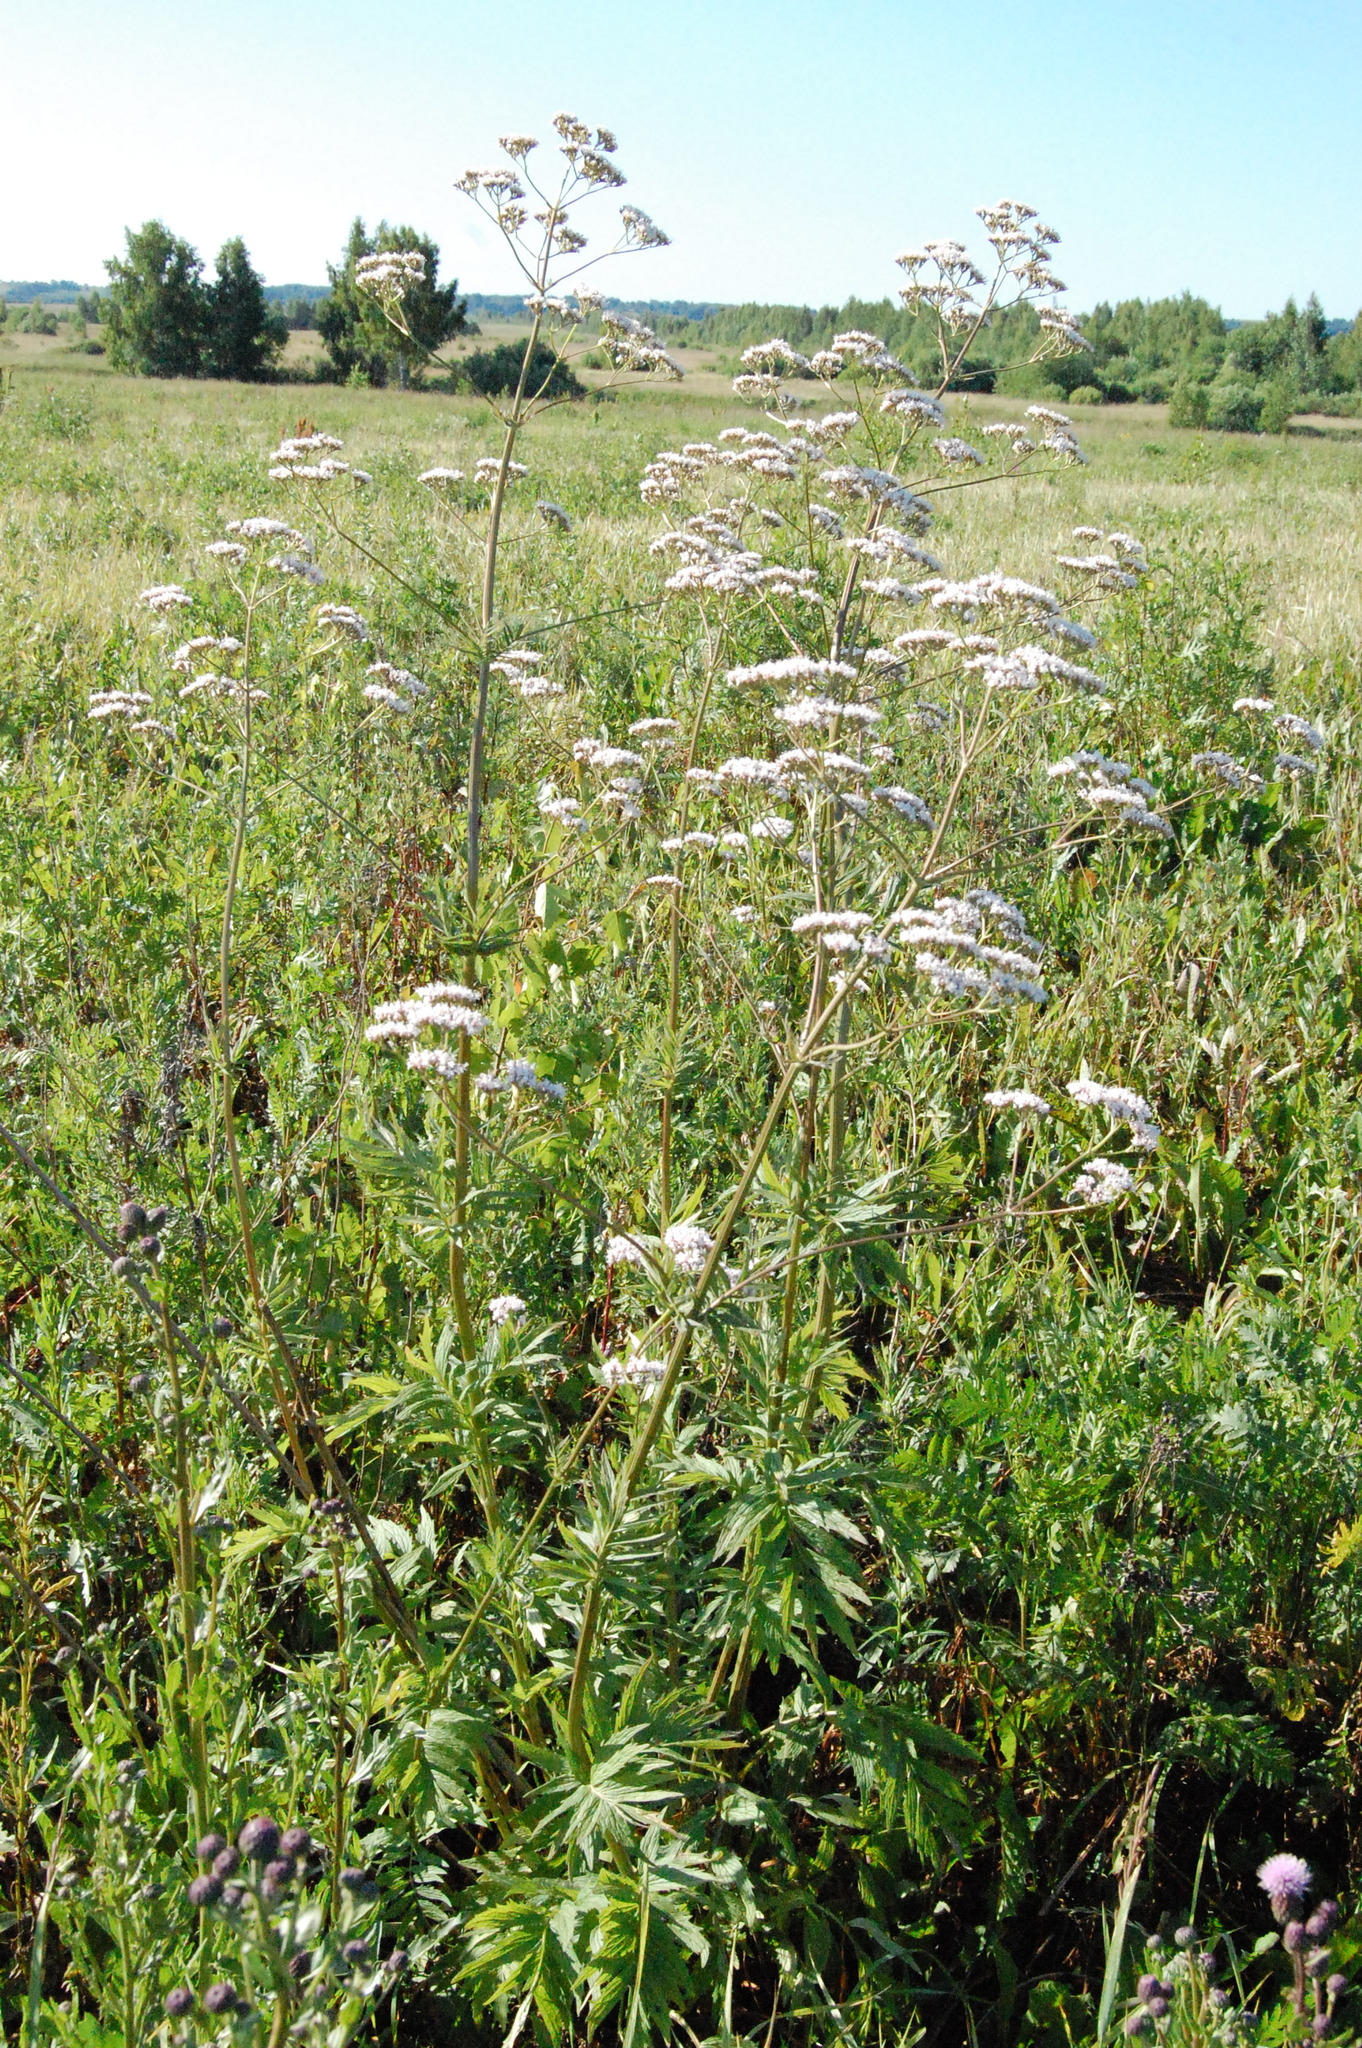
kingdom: Plantae
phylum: Tracheophyta
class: Magnoliopsida
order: Dipsacales
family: Caprifoliaceae
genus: Valeriana
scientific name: Valeriana officinalis
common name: Common valerian
